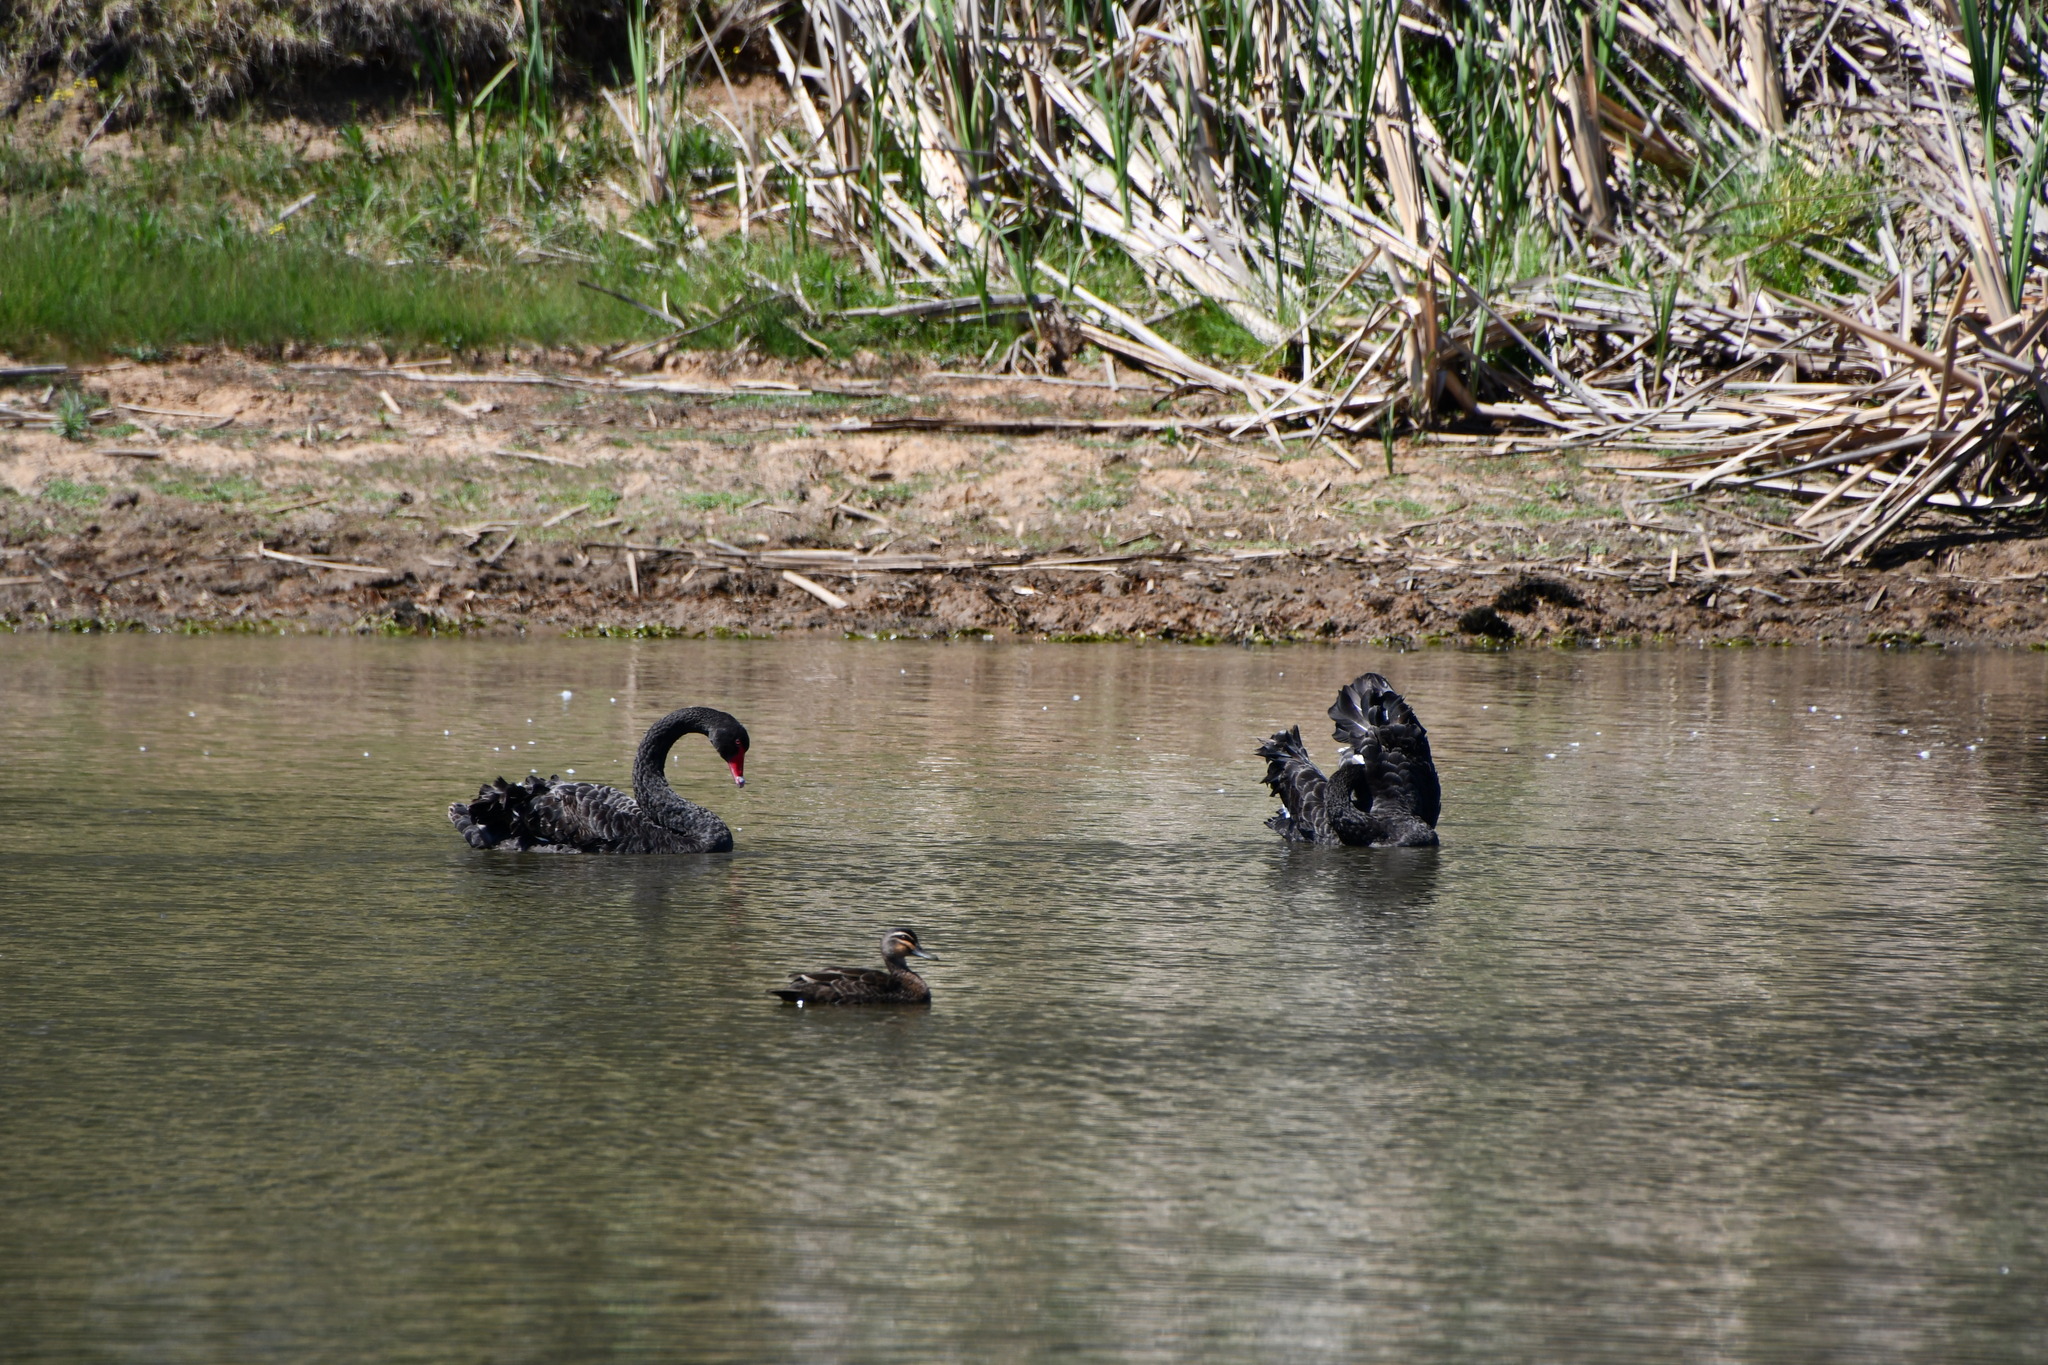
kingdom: Animalia
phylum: Chordata
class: Aves
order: Anseriformes
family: Anatidae
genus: Cygnus
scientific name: Cygnus atratus
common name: Black swan
